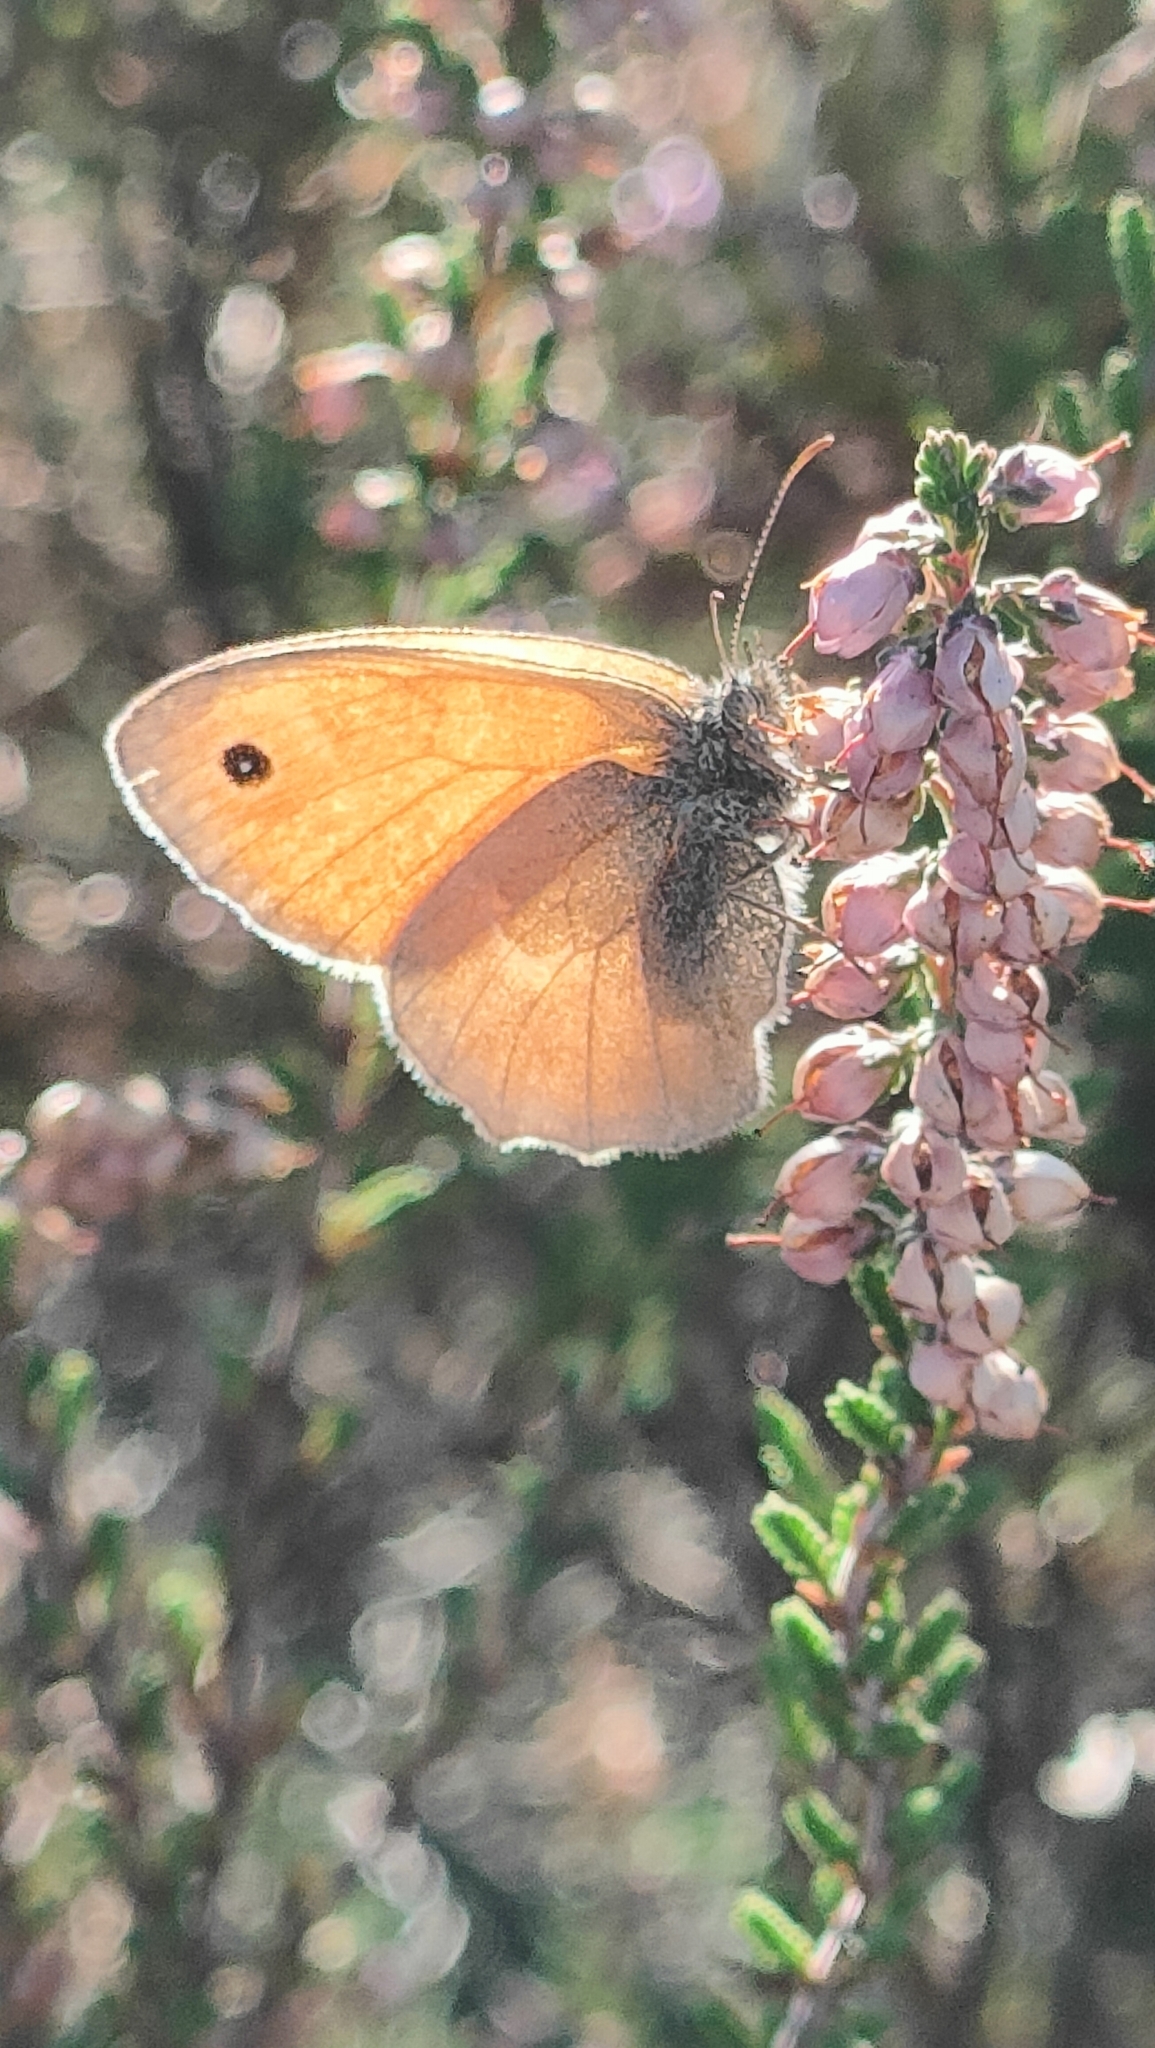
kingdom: Animalia
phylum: Arthropoda
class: Insecta
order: Lepidoptera
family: Nymphalidae
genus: Coenonympha
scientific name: Coenonympha pamphilus
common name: Small heath
